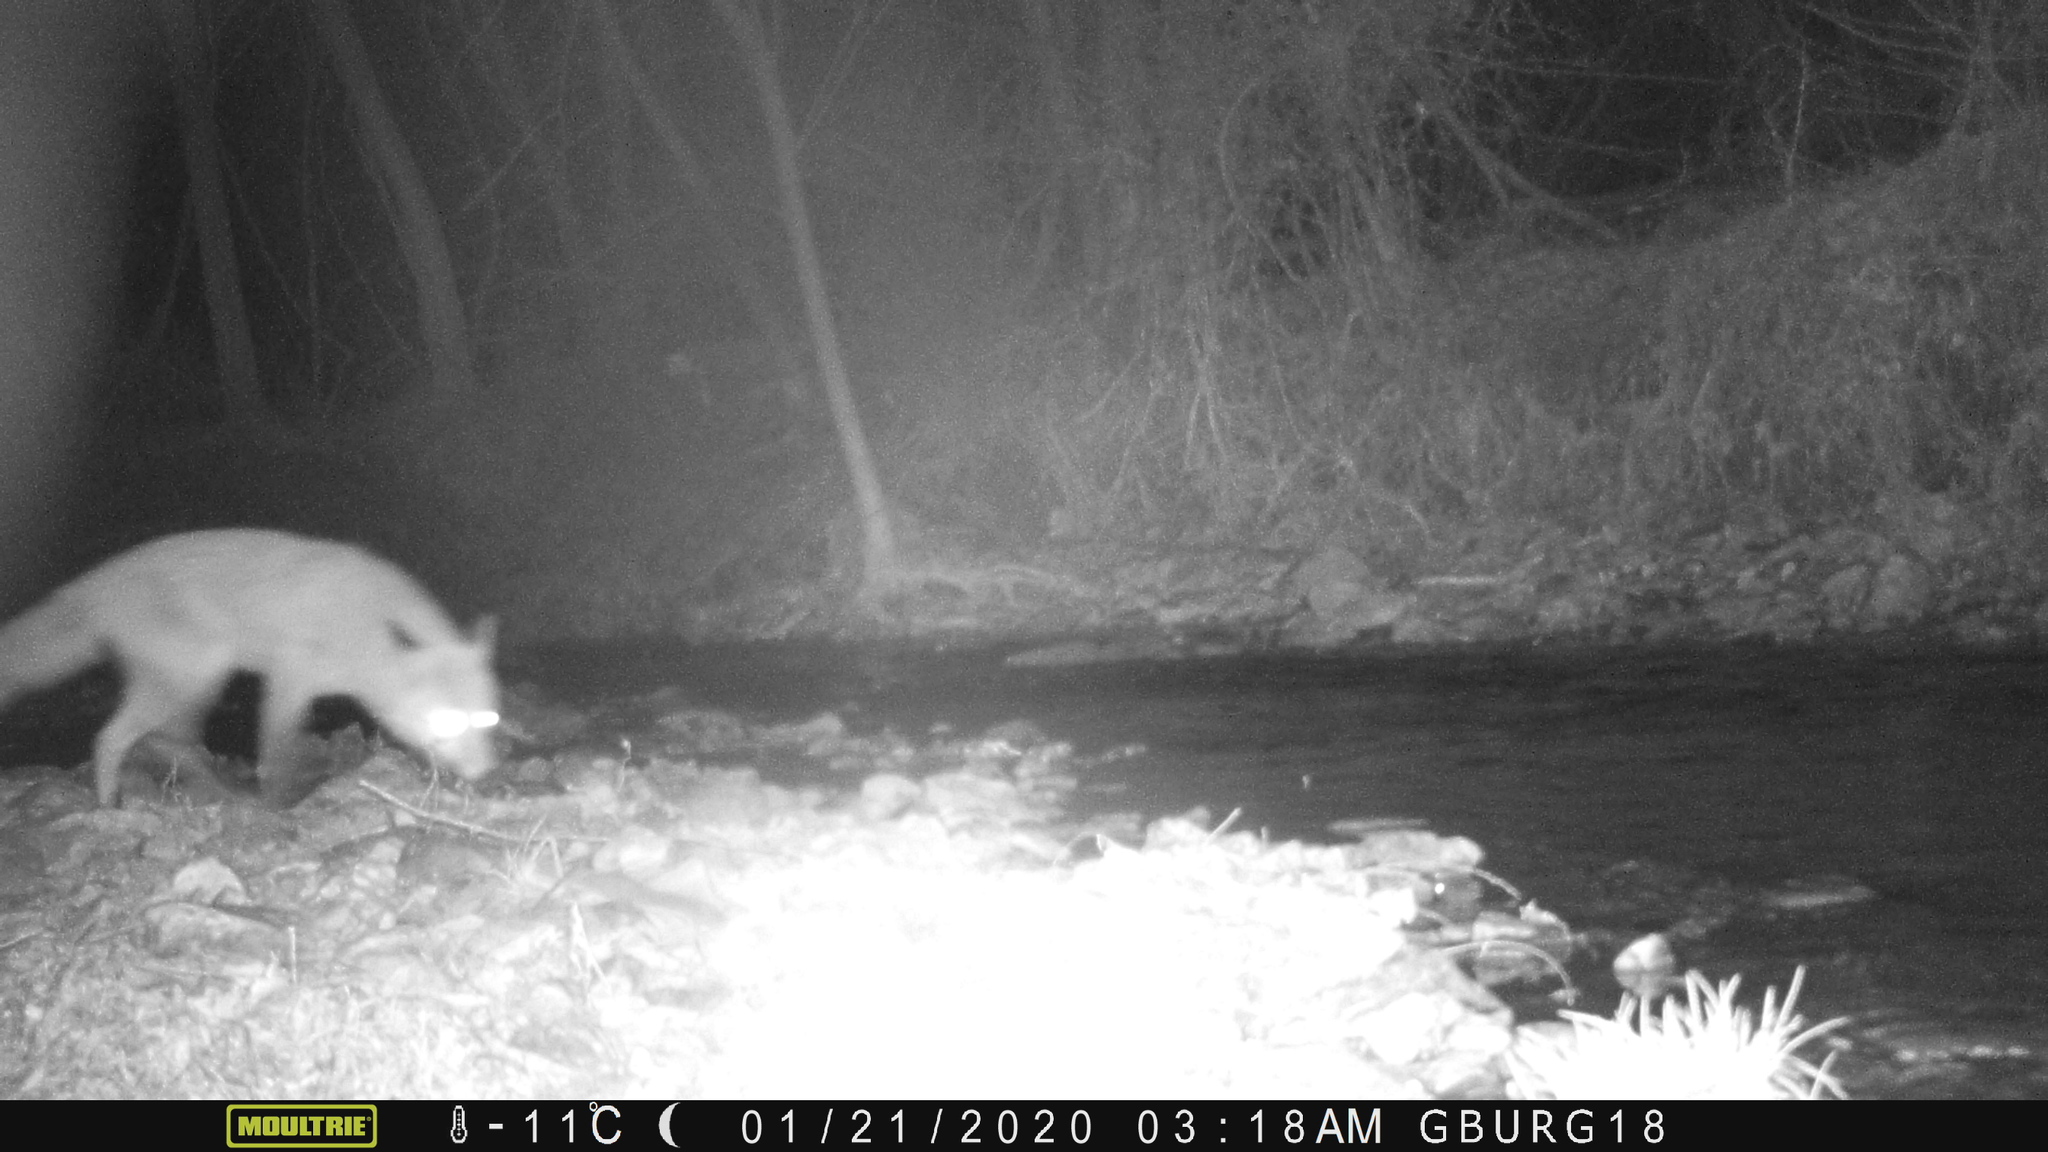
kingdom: Animalia
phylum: Chordata
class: Mammalia
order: Carnivora
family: Canidae
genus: Vulpes
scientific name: Vulpes vulpes
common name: Red fox
